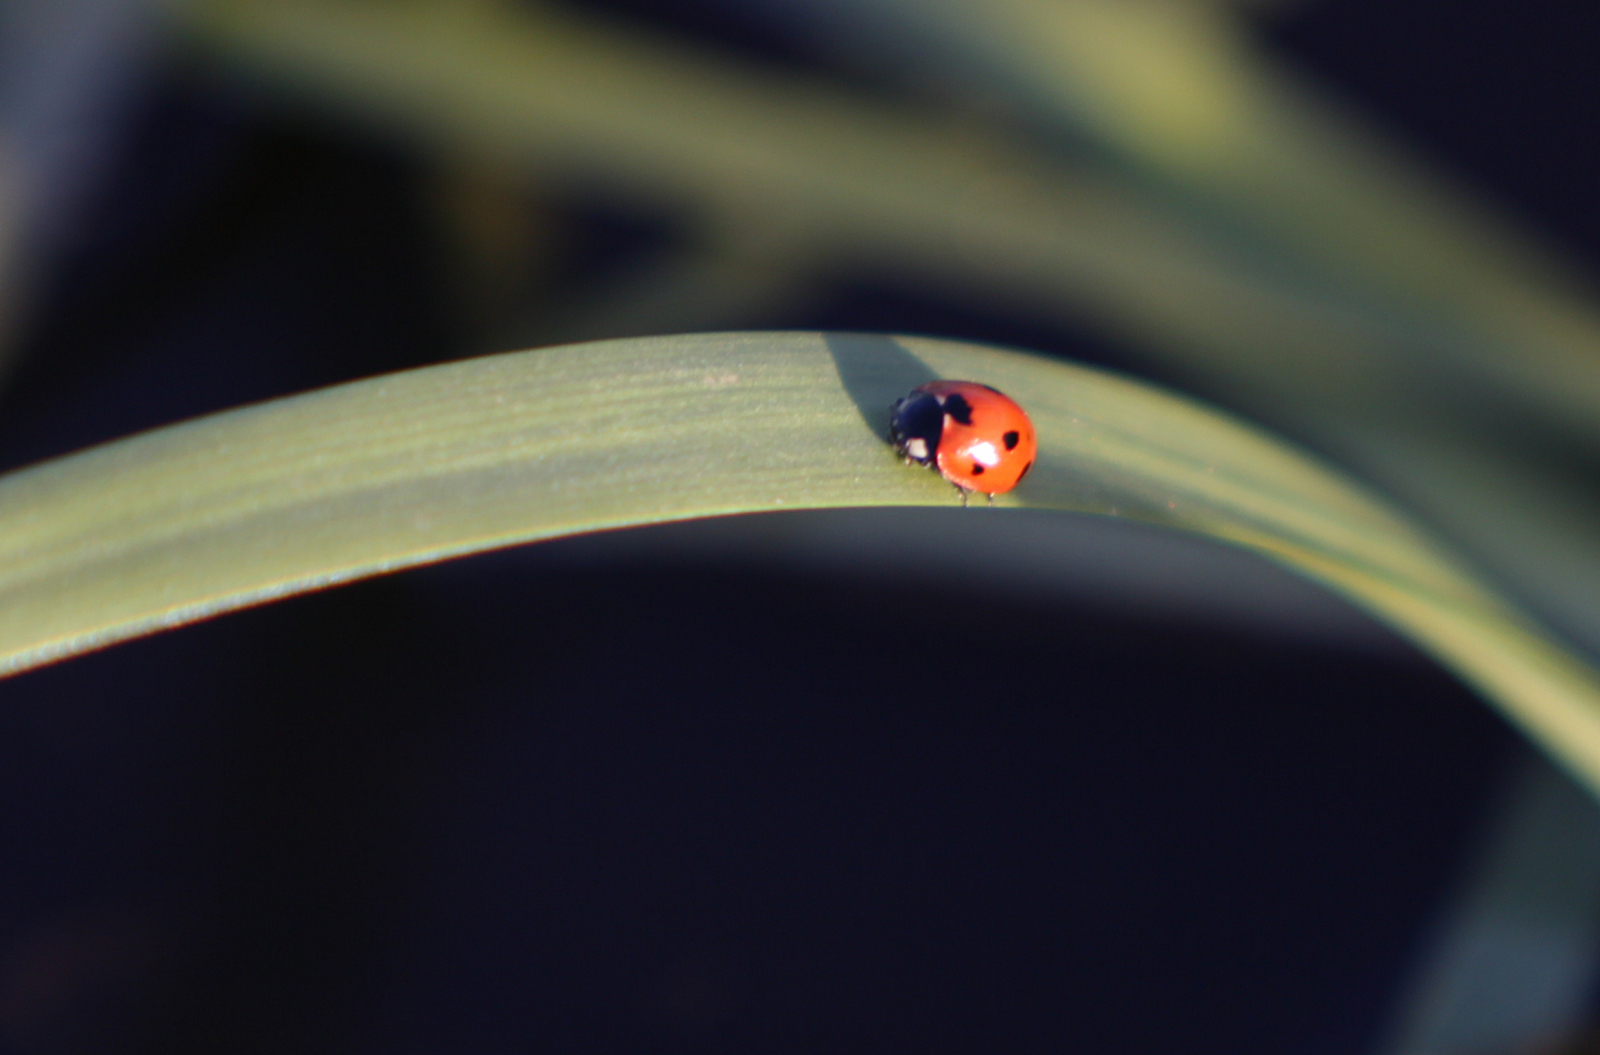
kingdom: Animalia
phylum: Arthropoda
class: Insecta
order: Coleoptera
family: Coccinellidae
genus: Coccinella
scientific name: Coccinella septempunctata
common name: Sevenspotted lady beetle
